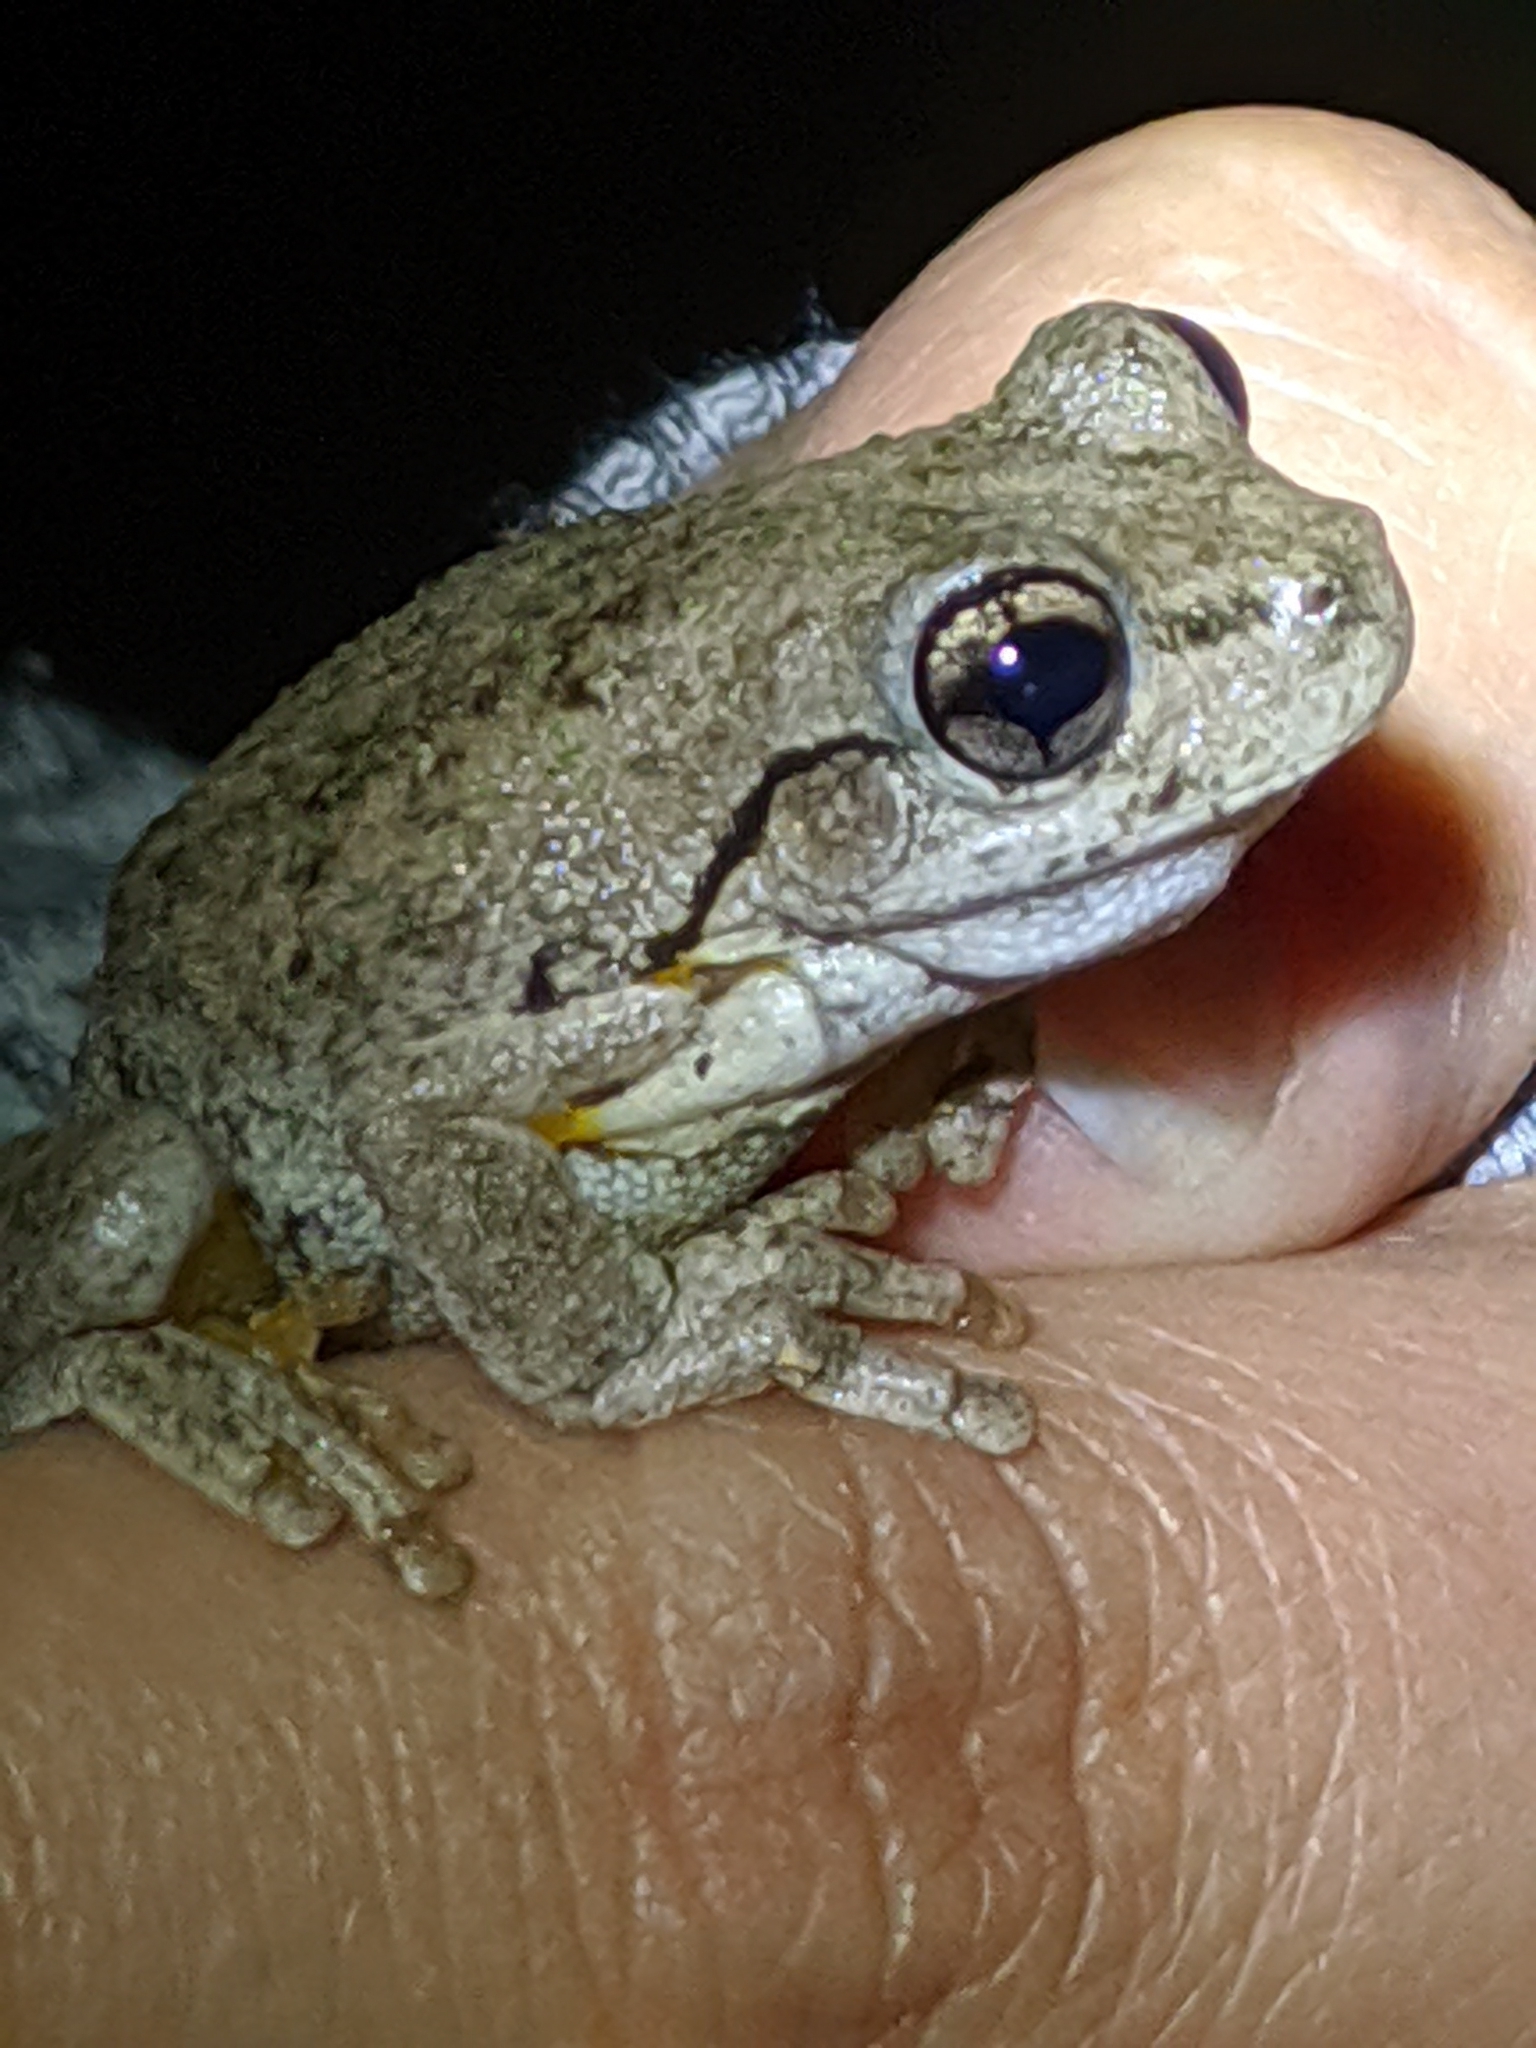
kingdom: Animalia
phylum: Chordata
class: Amphibia
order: Anura
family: Pelodryadidae
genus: Litoria
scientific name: Litoria peronii
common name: Emerald spotted treefrog
